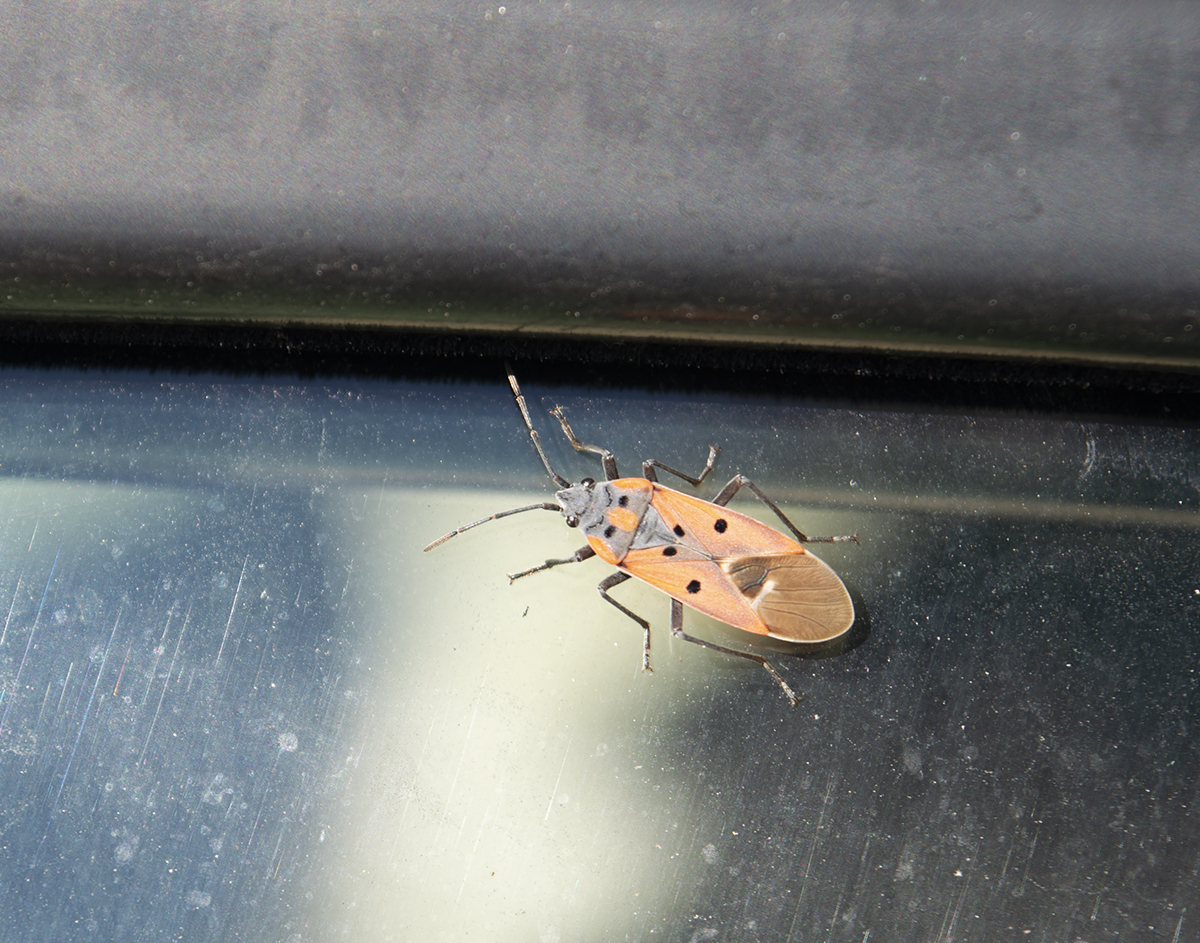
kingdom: Animalia
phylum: Arthropoda
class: Insecta
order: Hemiptera
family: Lygaeidae
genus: Lygaeus
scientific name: Lygaeus creticus
